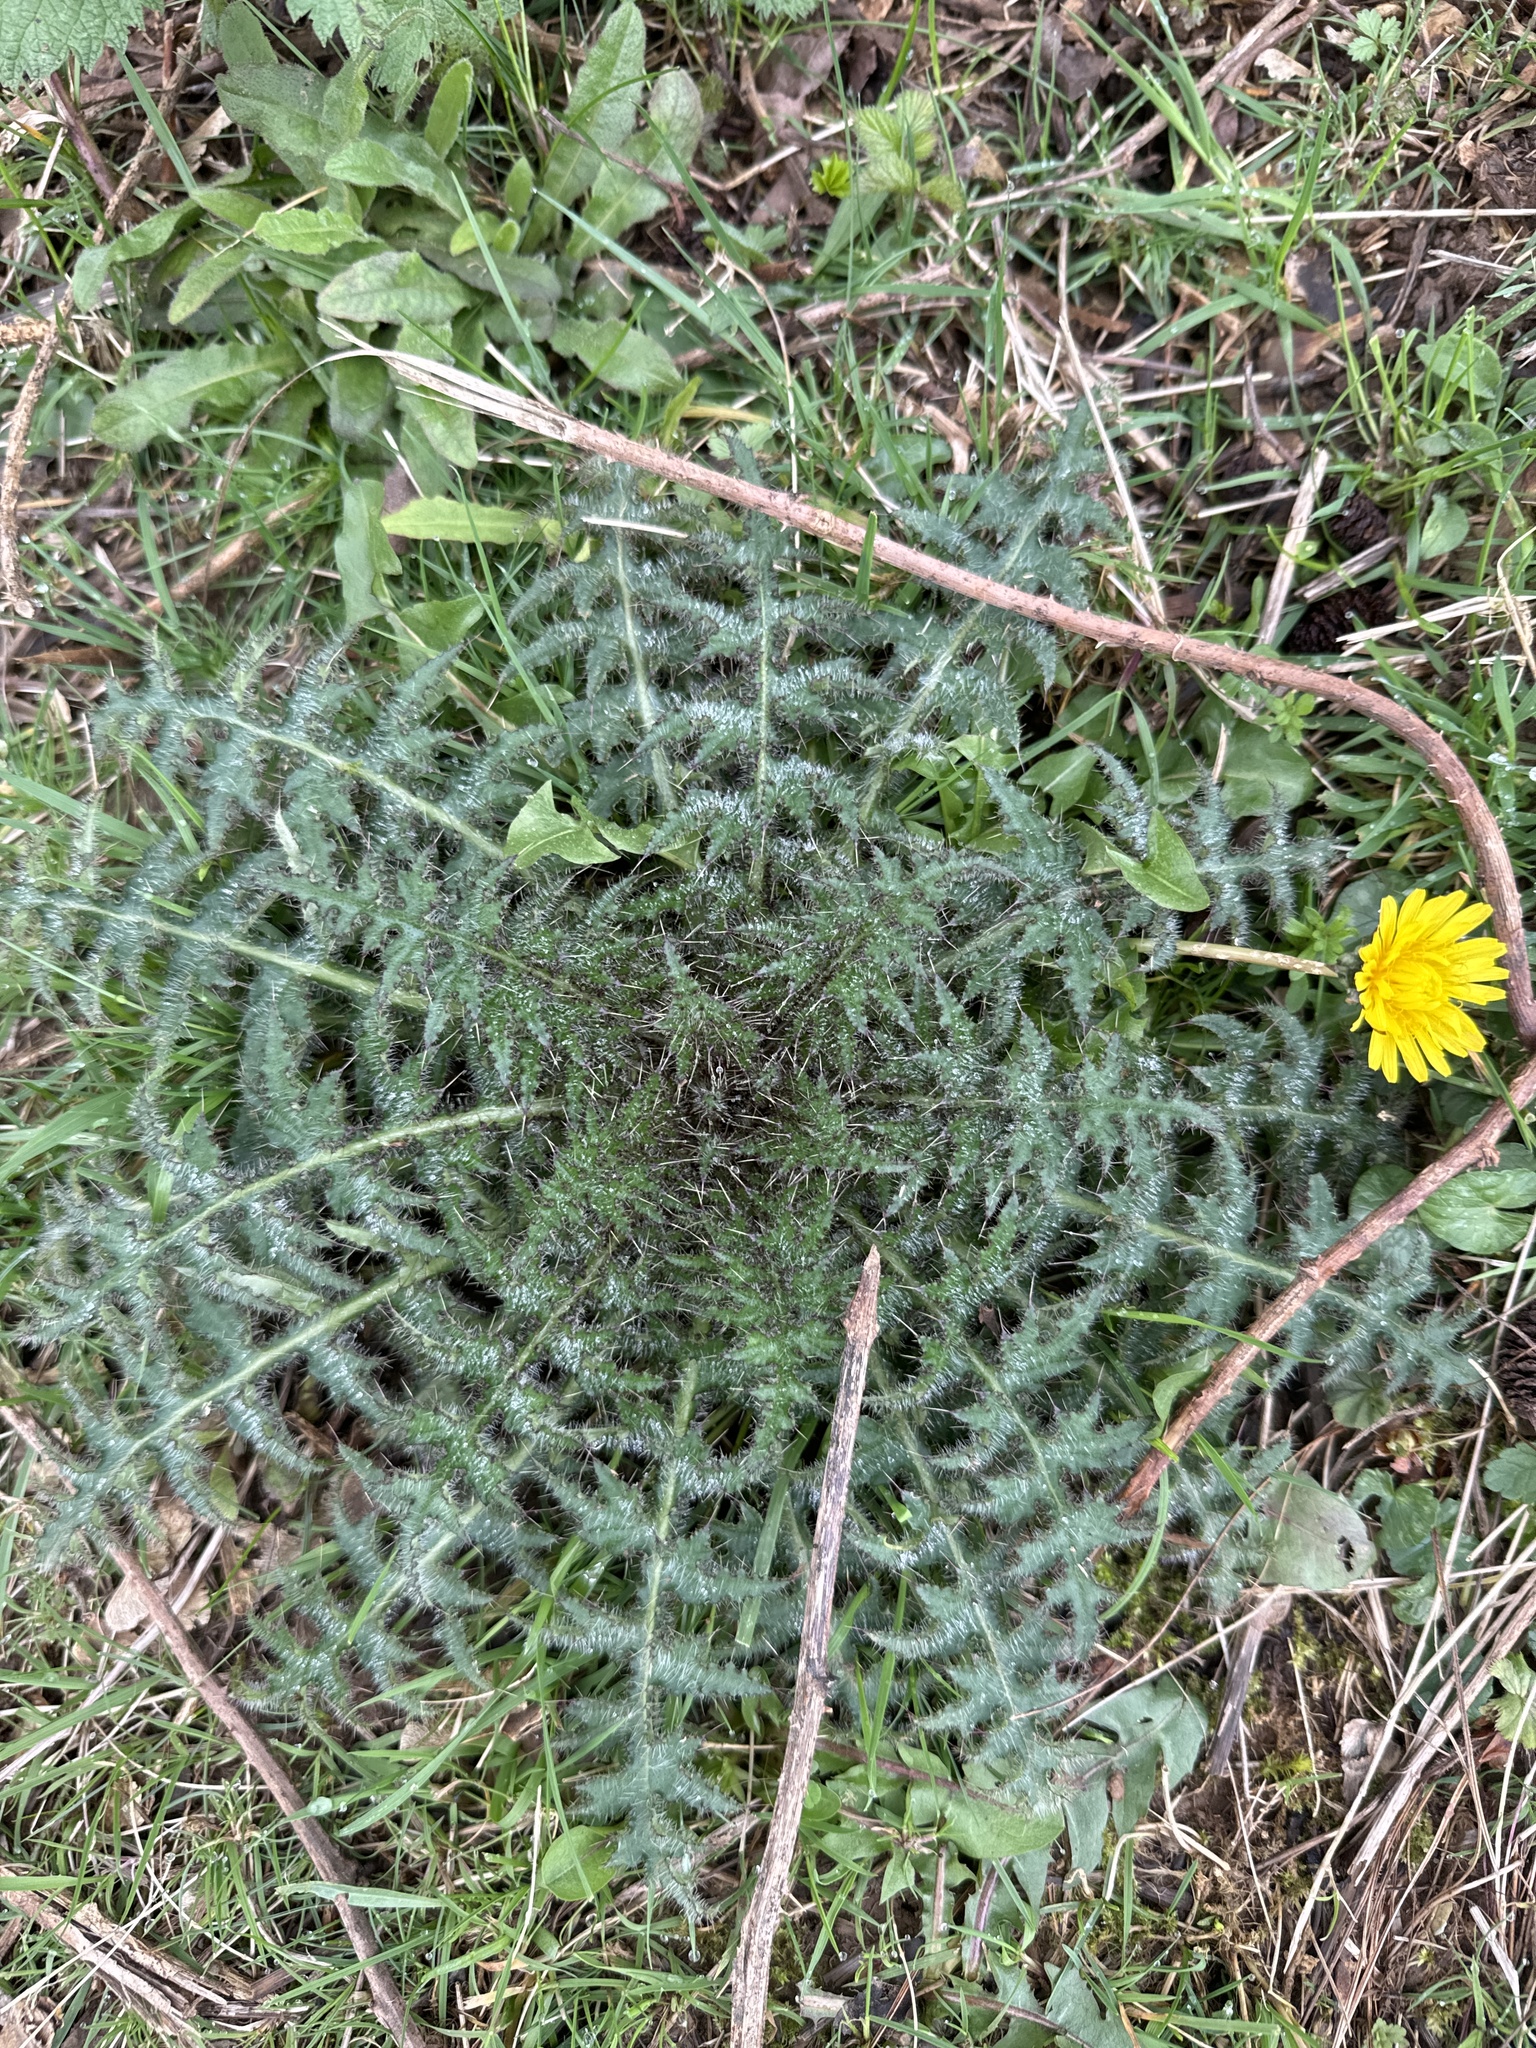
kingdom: Plantae
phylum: Tracheophyta
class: Magnoliopsida
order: Asterales
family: Asteraceae
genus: Cirsium
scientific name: Cirsium vulgare
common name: Bull thistle
